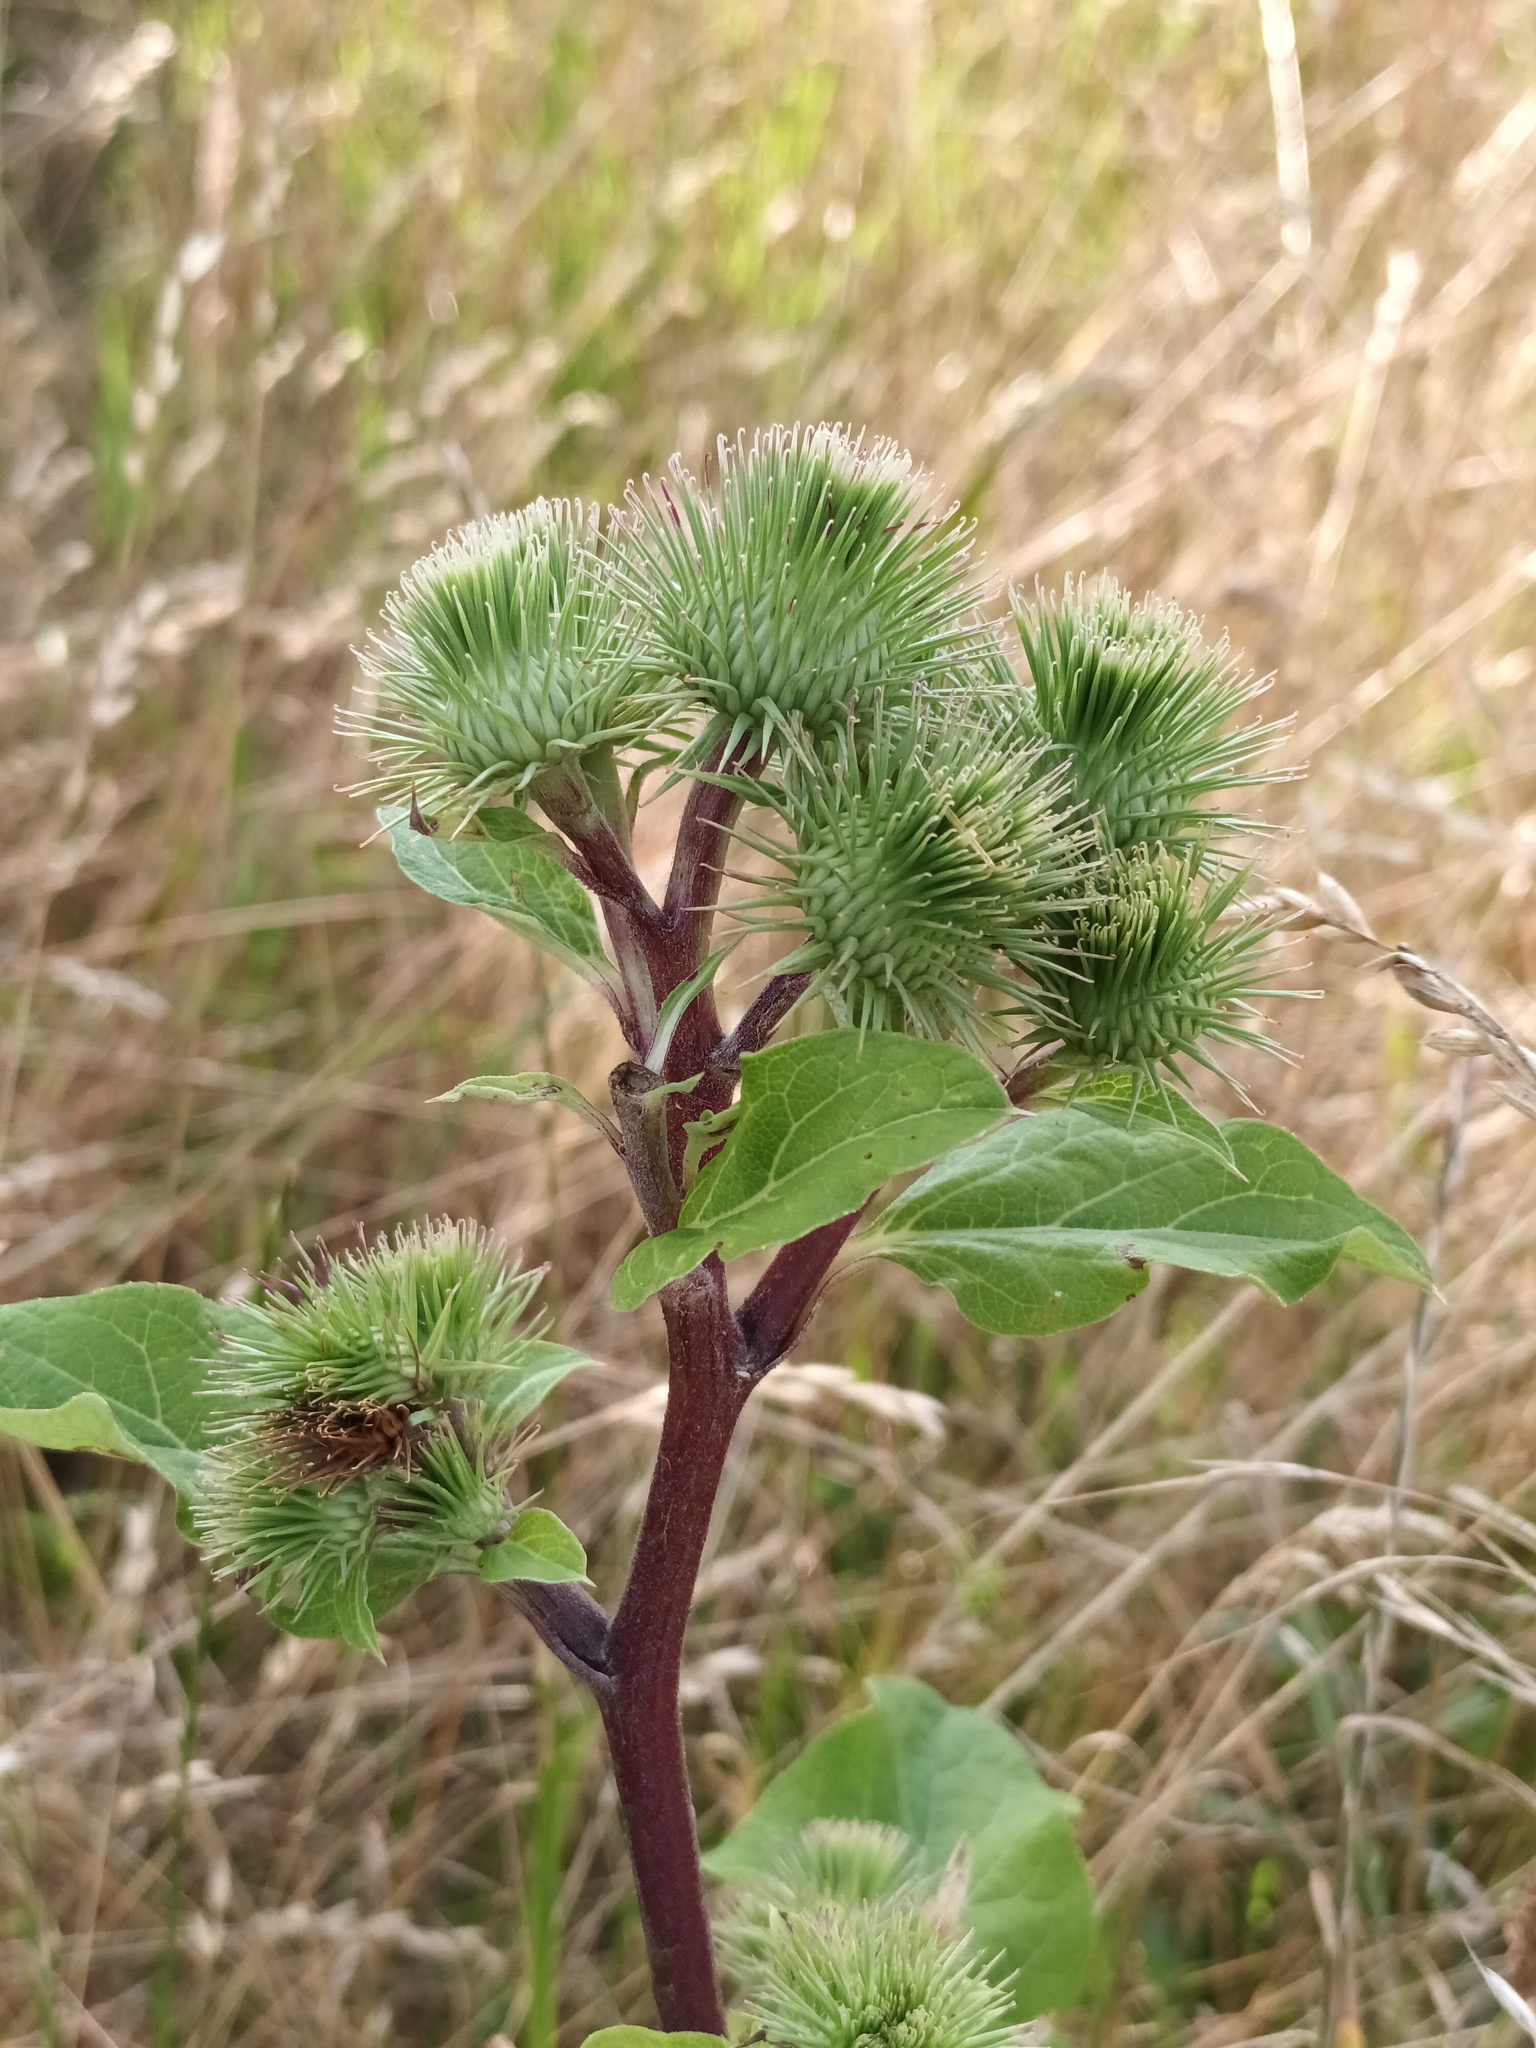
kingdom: Plantae
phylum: Tracheophyta
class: Magnoliopsida
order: Asterales
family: Asteraceae
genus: Arctium
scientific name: Arctium lappa
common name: Greater burdock
